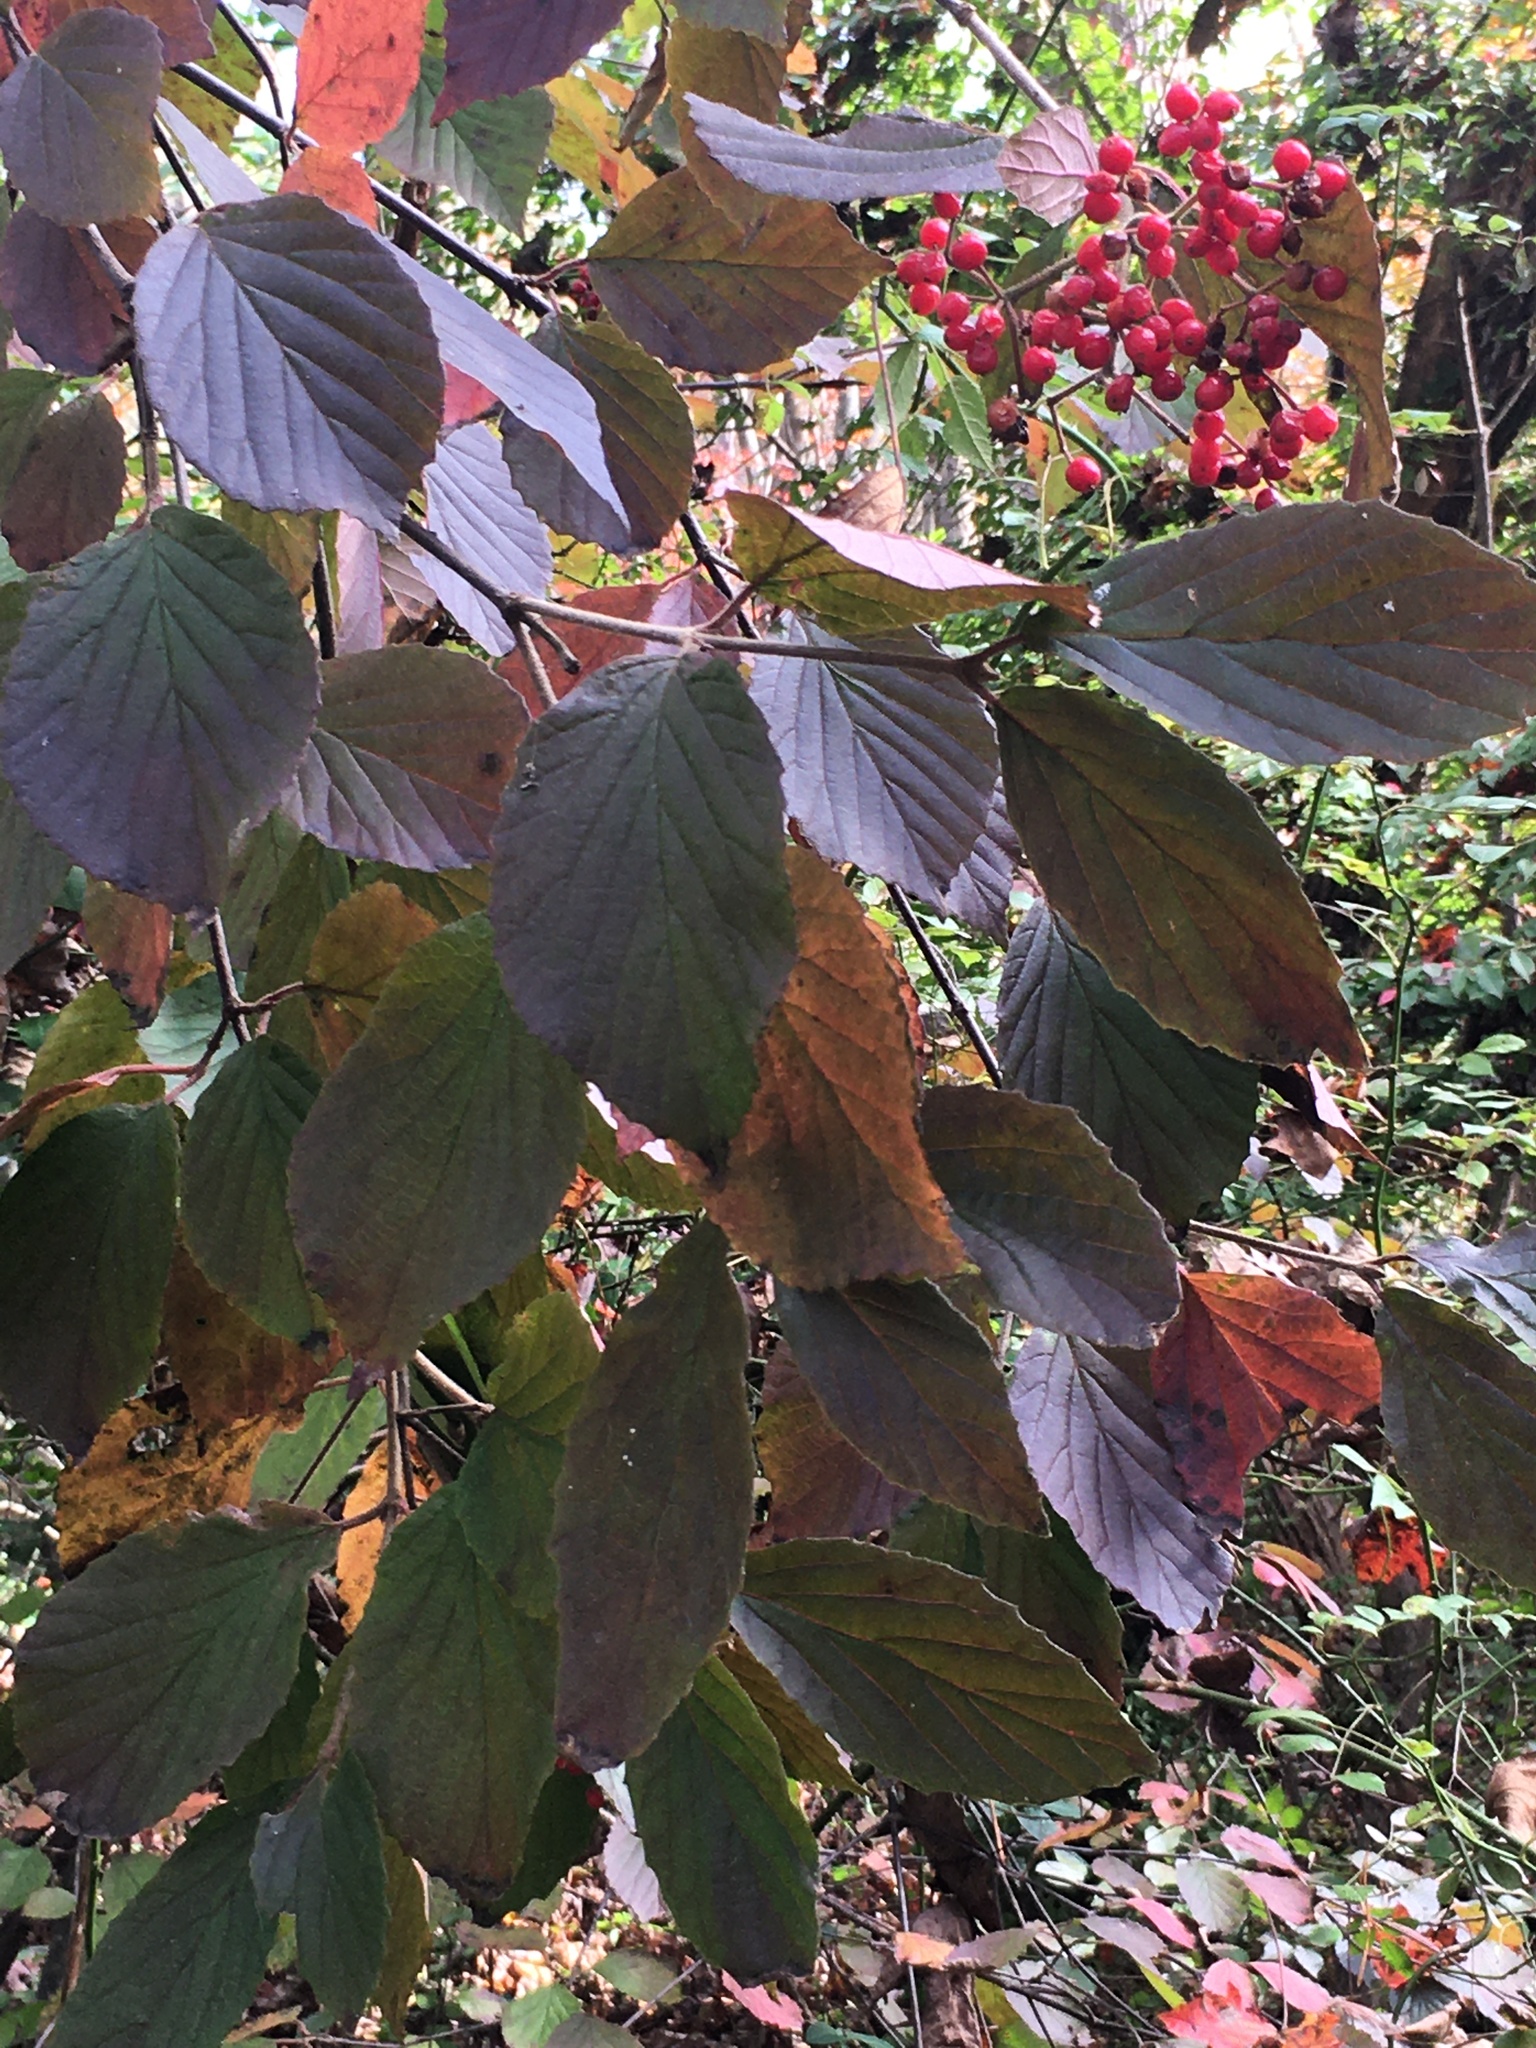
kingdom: Plantae
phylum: Tracheophyta
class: Magnoliopsida
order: Dipsacales
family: Viburnaceae
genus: Viburnum
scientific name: Viburnum dilatatum
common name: Linden arrowwood
